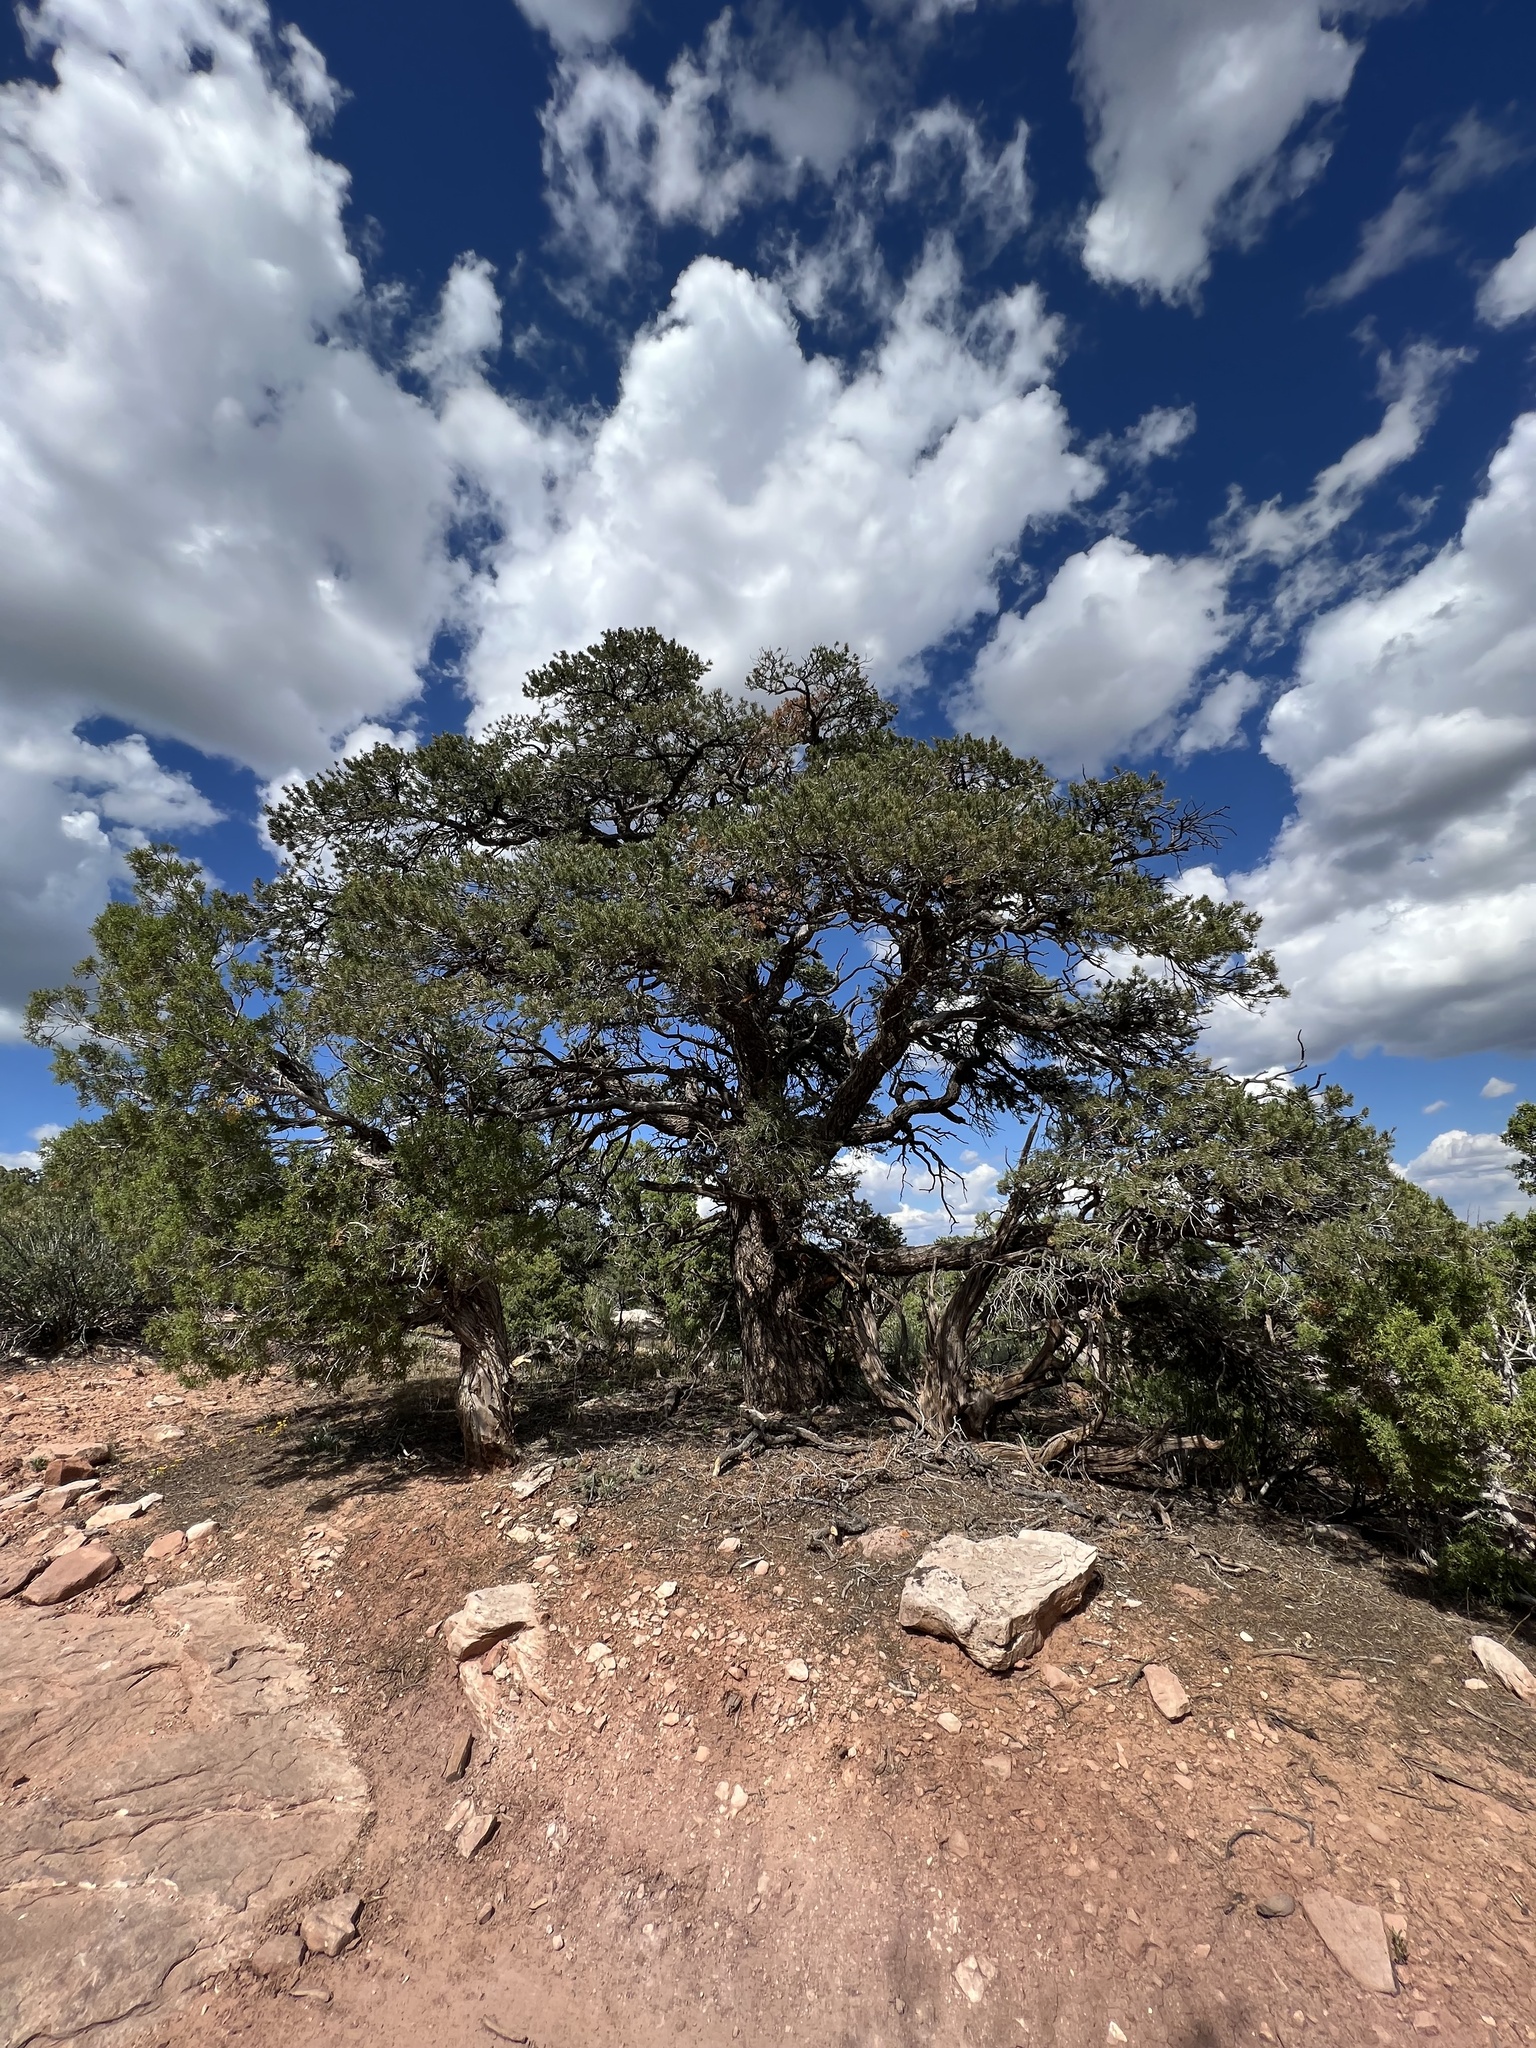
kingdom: Plantae
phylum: Tracheophyta
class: Pinopsida
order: Pinales
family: Pinaceae
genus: Pinus
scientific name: Pinus edulis
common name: Colorado pinyon
